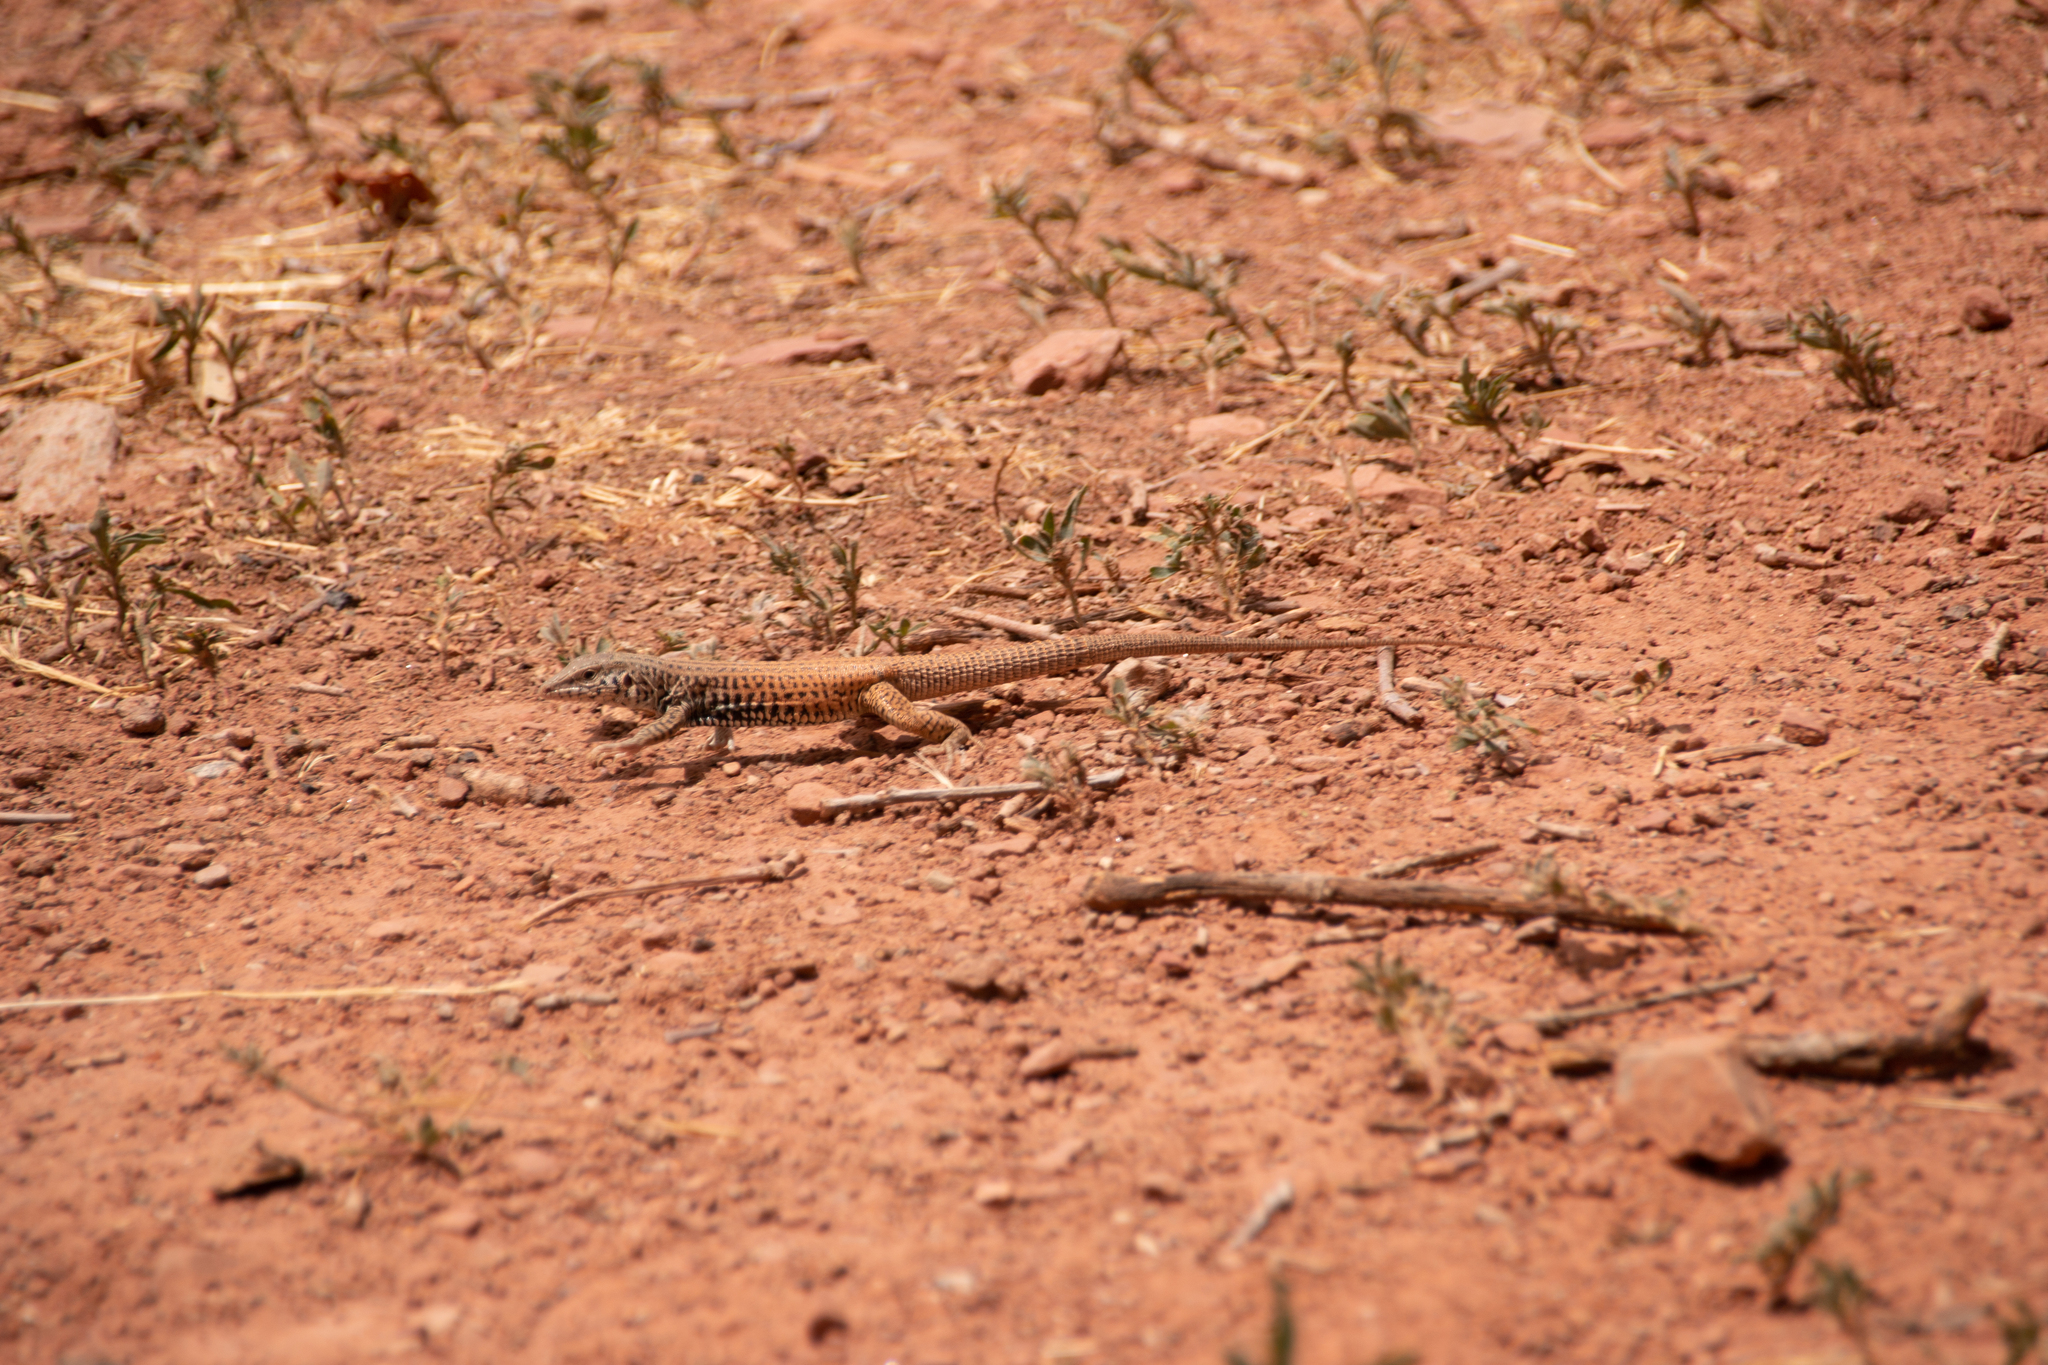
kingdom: Animalia
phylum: Chordata
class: Squamata
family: Teiidae
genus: Aspidoscelis
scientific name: Aspidoscelis tigris
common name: Tiger whiptail
